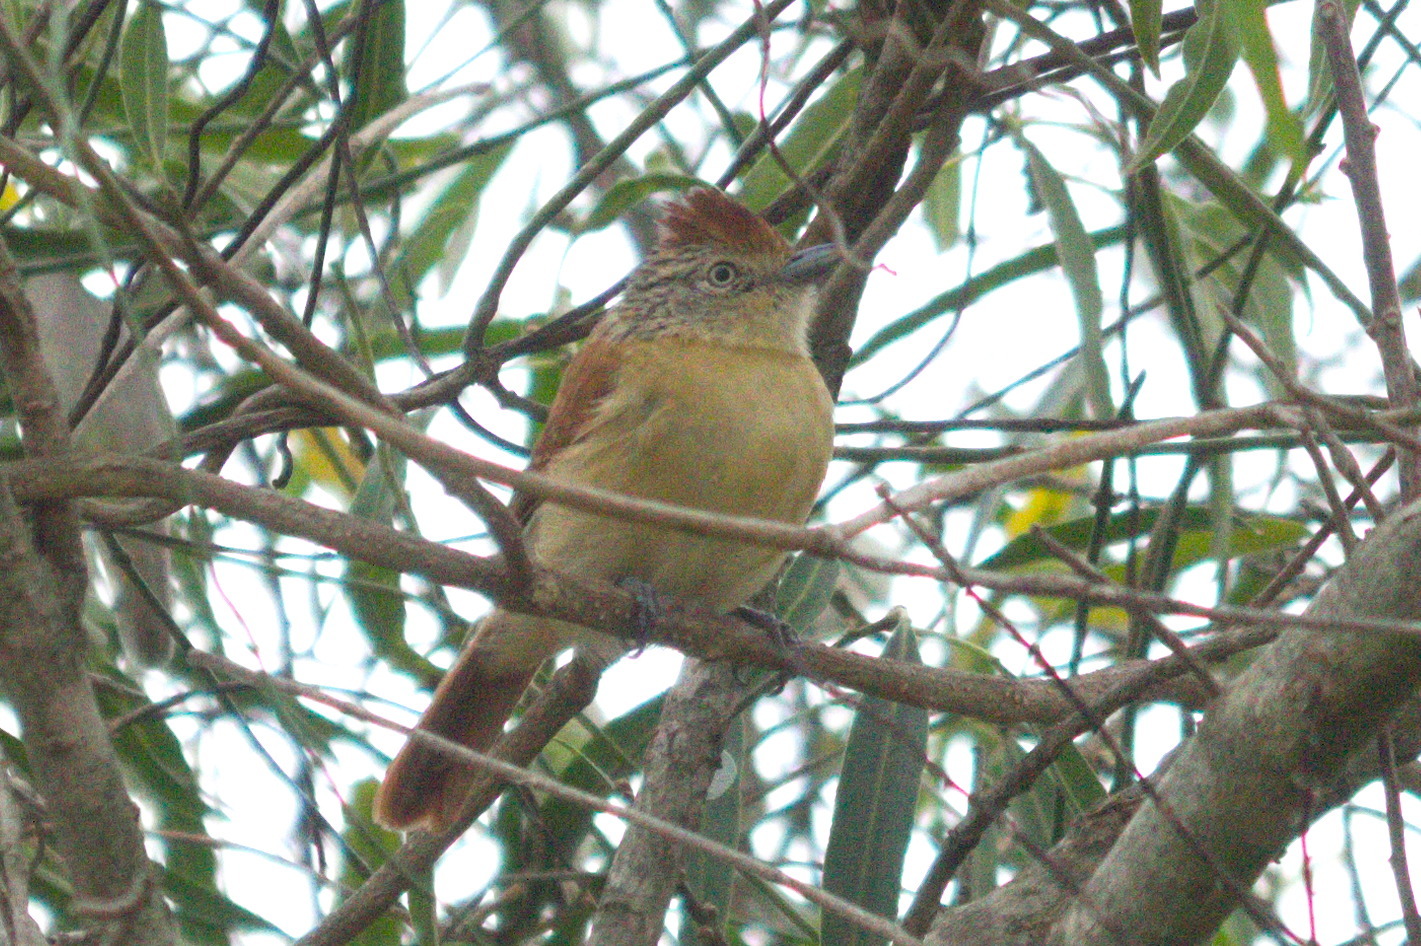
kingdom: Animalia
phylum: Chordata
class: Aves
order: Passeriformes
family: Thamnophilidae
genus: Thamnophilus
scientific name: Thamnophilus doliatus
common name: Barred antshrike
